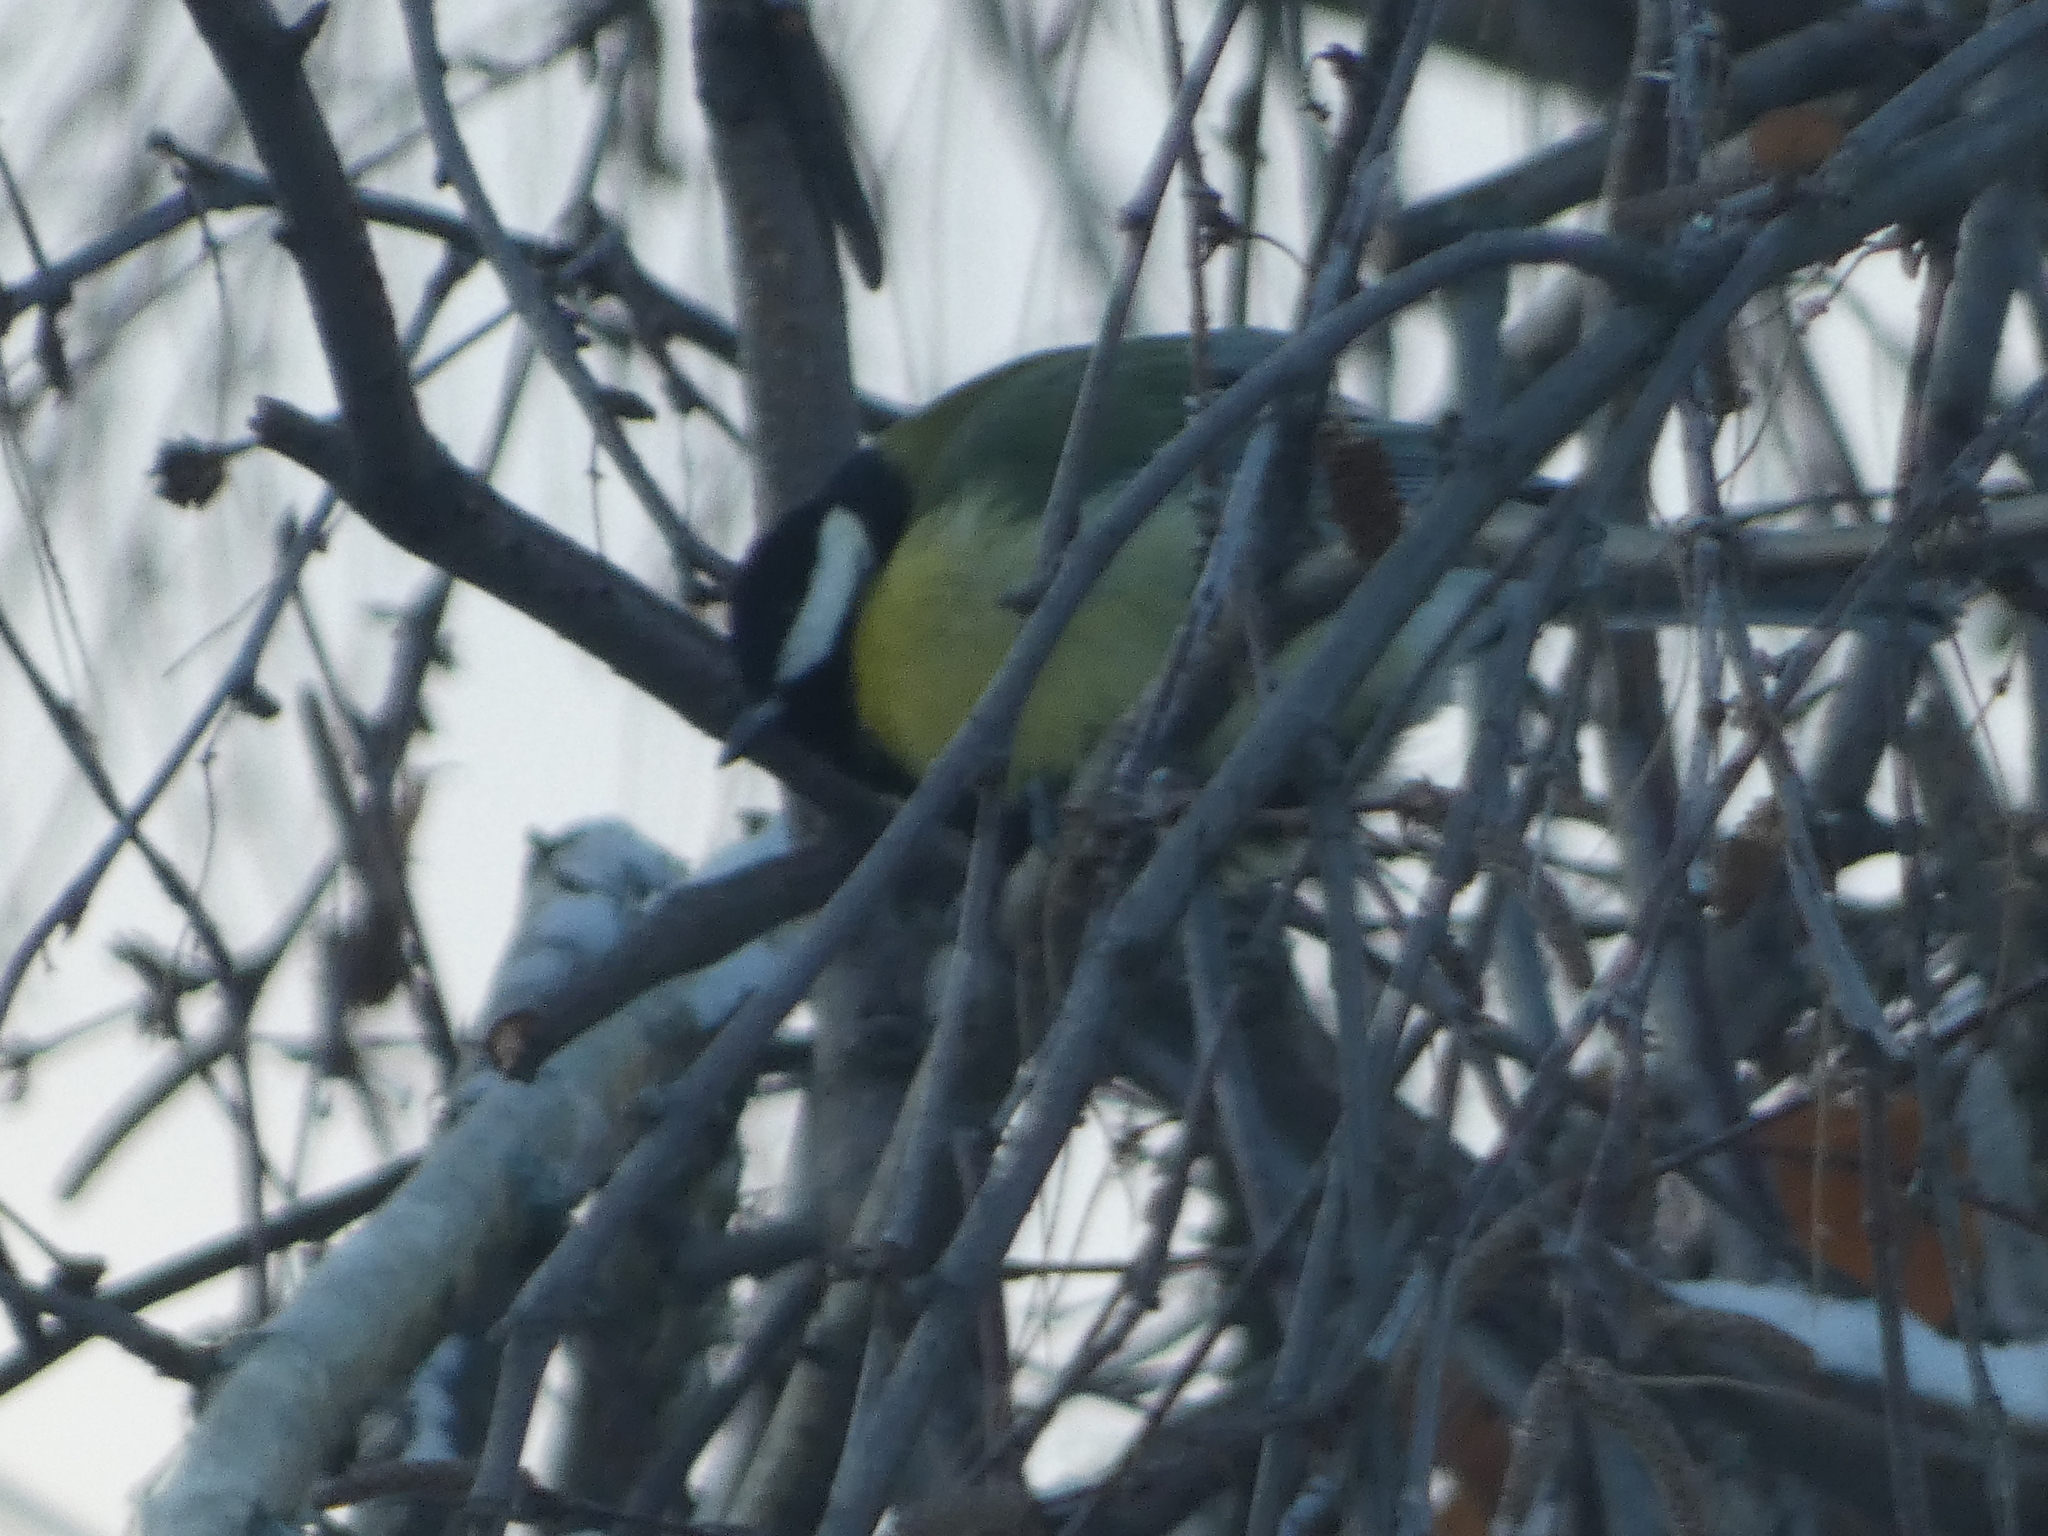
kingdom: Animalia
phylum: Chordata
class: Aves
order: Passeriformes
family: Paridae
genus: Parus
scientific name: Parus major
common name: Great tit
